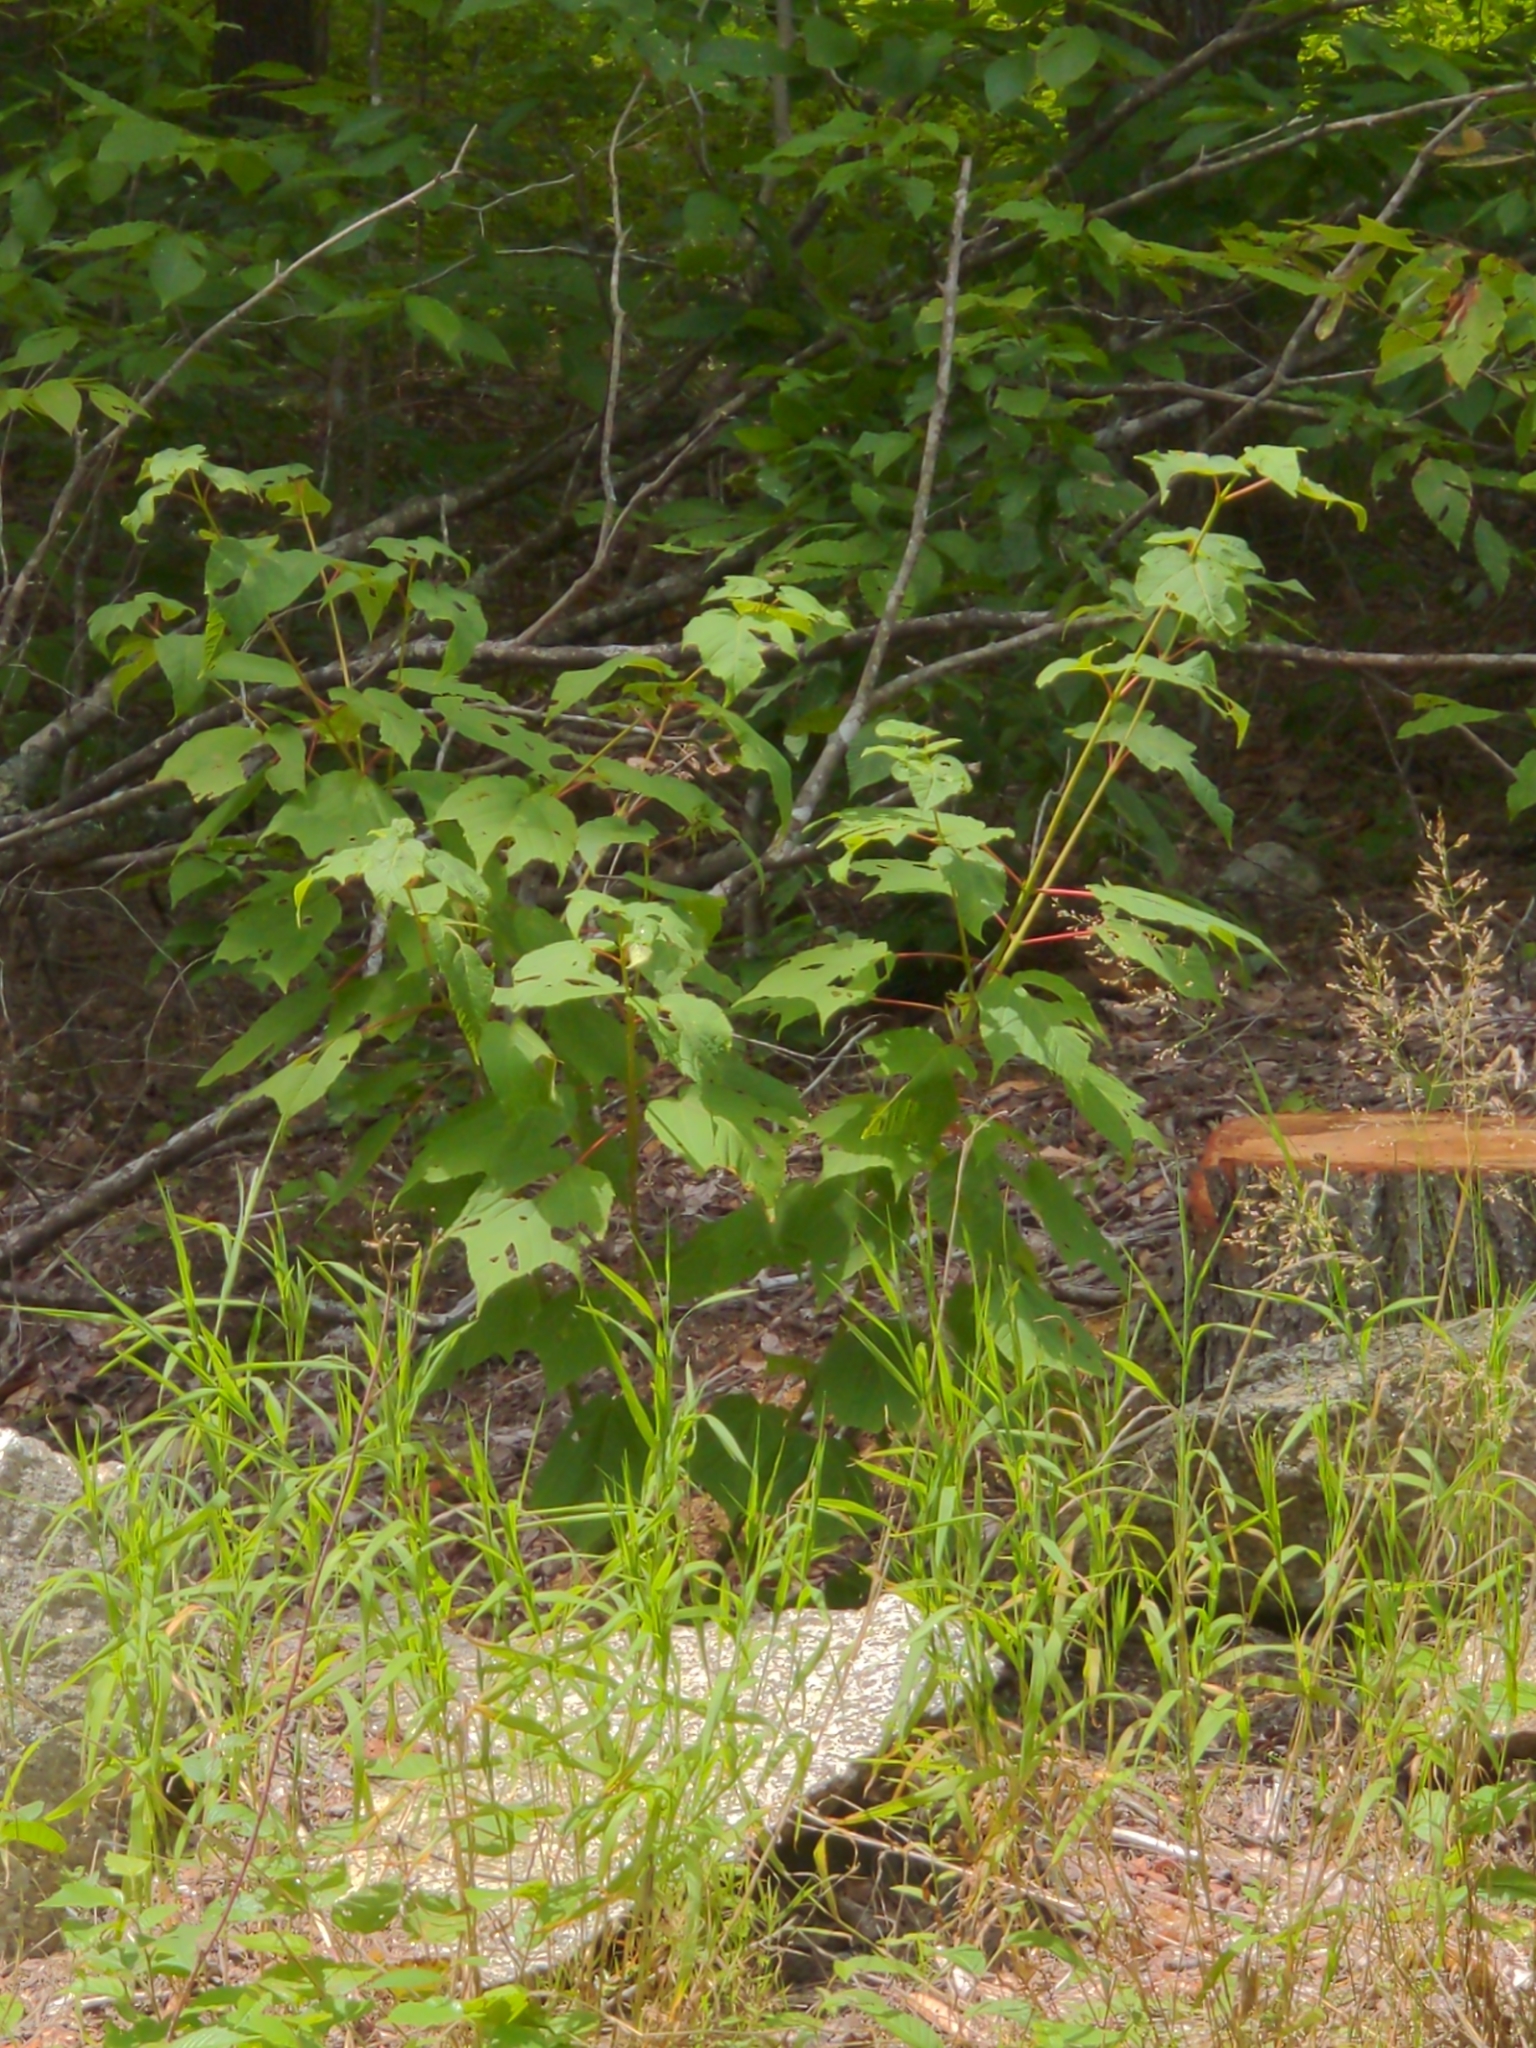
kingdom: Plantae
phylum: Tracheophyta
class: Magnoliopsida
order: Sapindales
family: Sapindaceae
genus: Acer
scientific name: Acer pensylvanicum
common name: Moosewood
